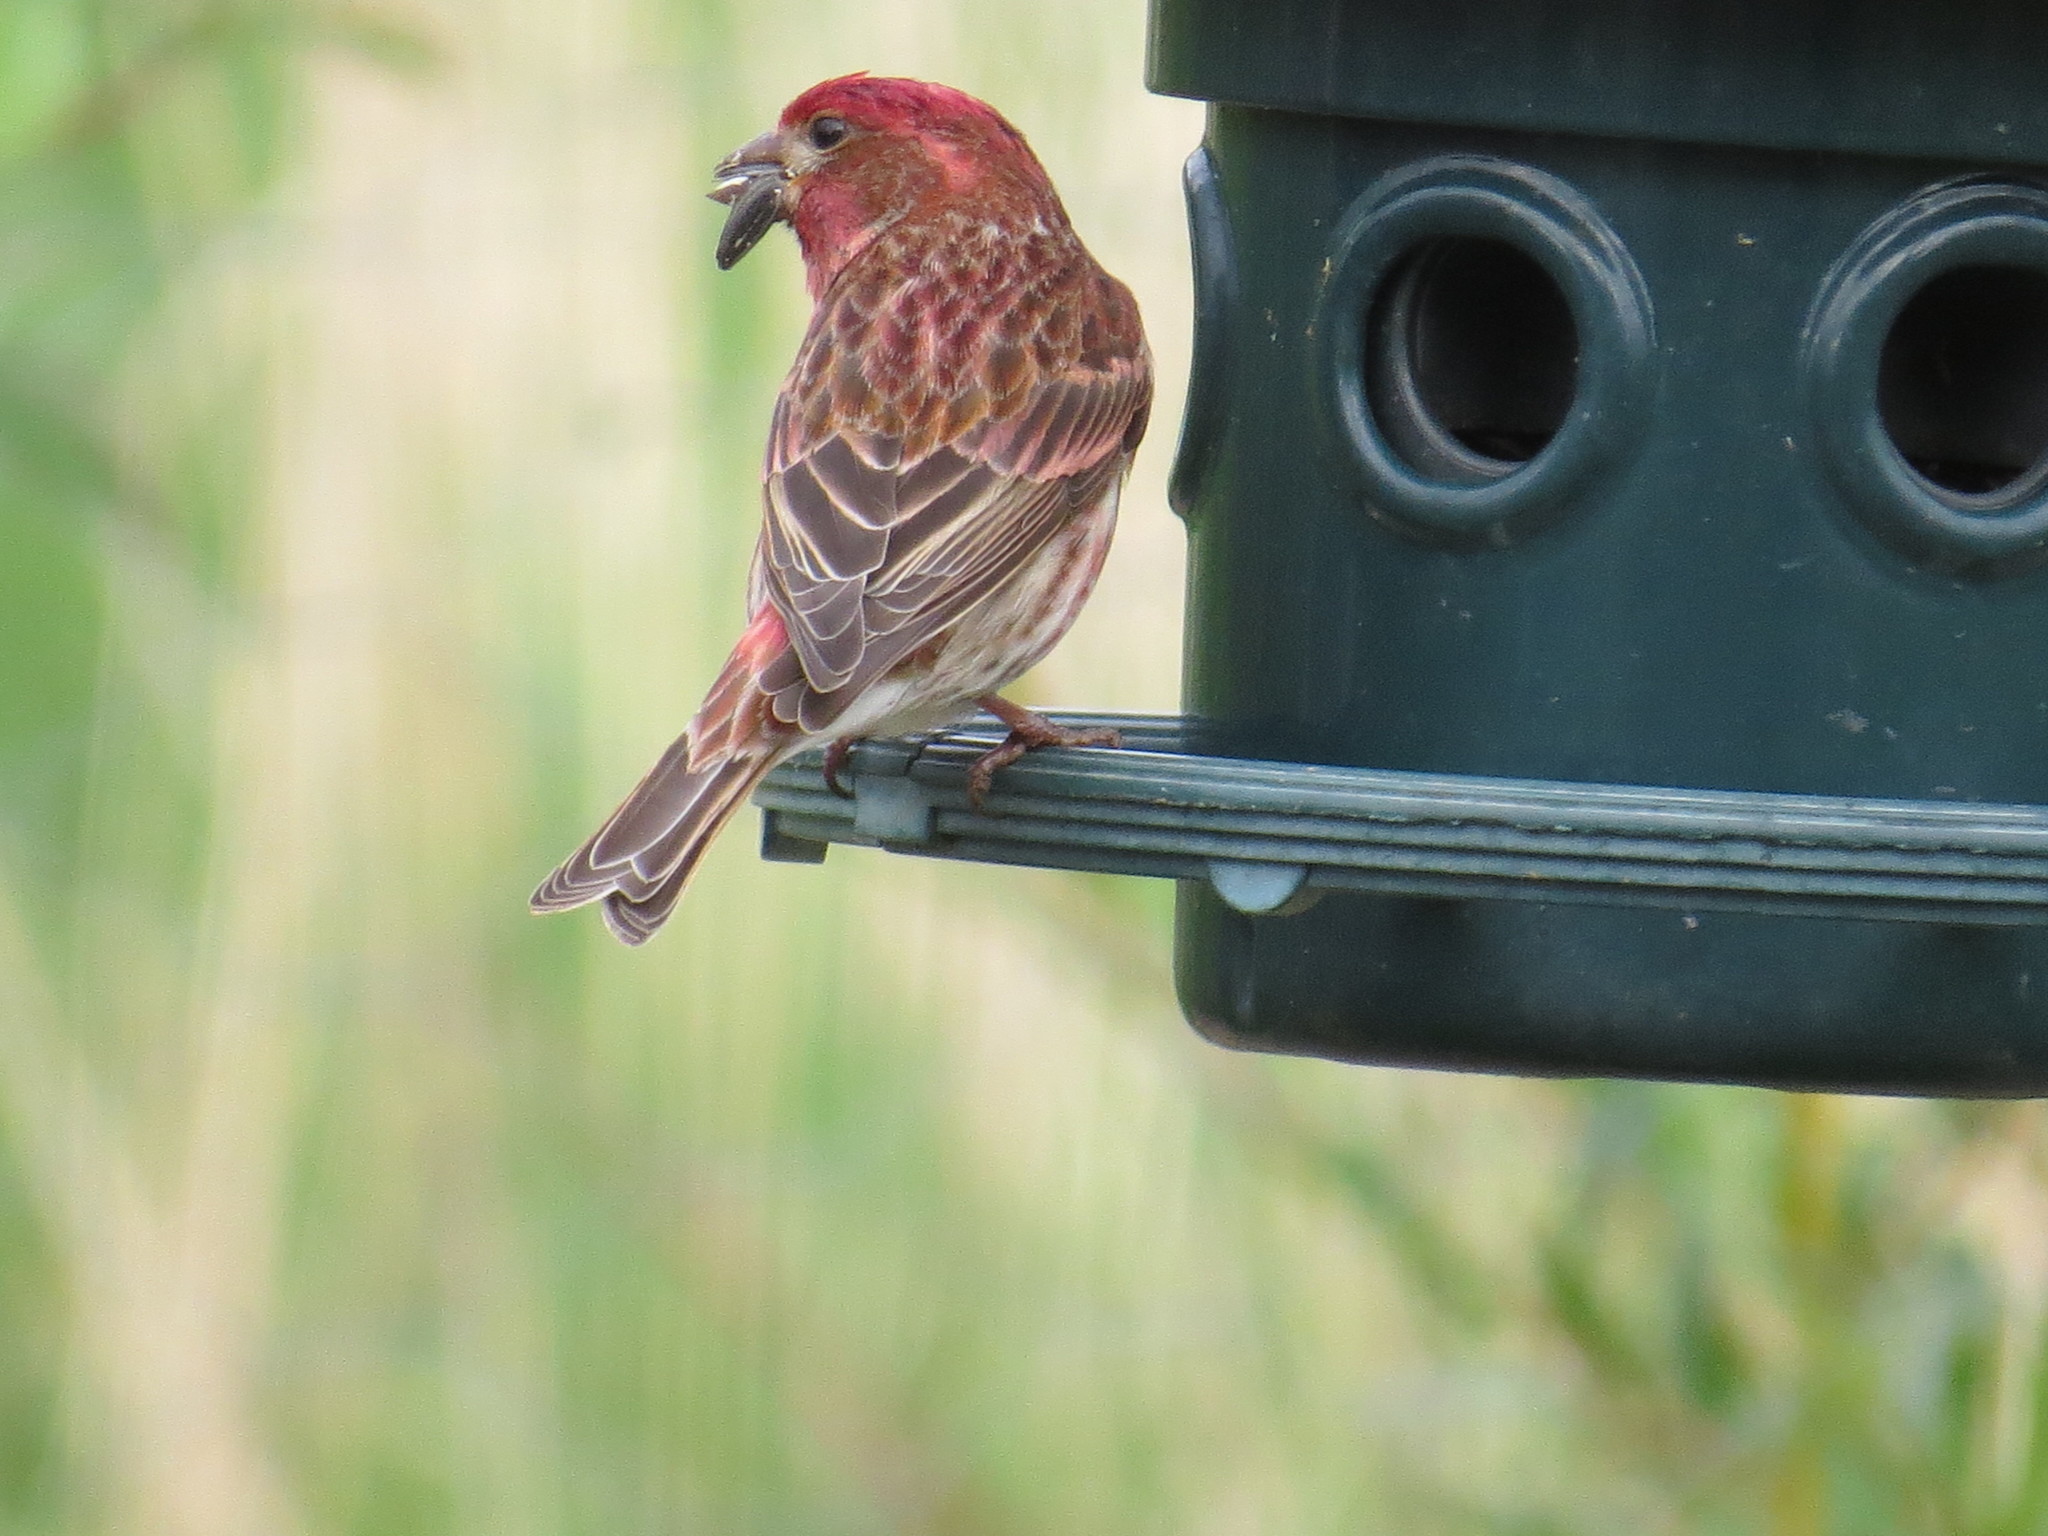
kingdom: Animalia
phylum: Chordata
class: Aves
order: Passeriformes
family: Fringillidae
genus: Haemorhous
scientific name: Haemorhous purpureus
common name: Purple finch
